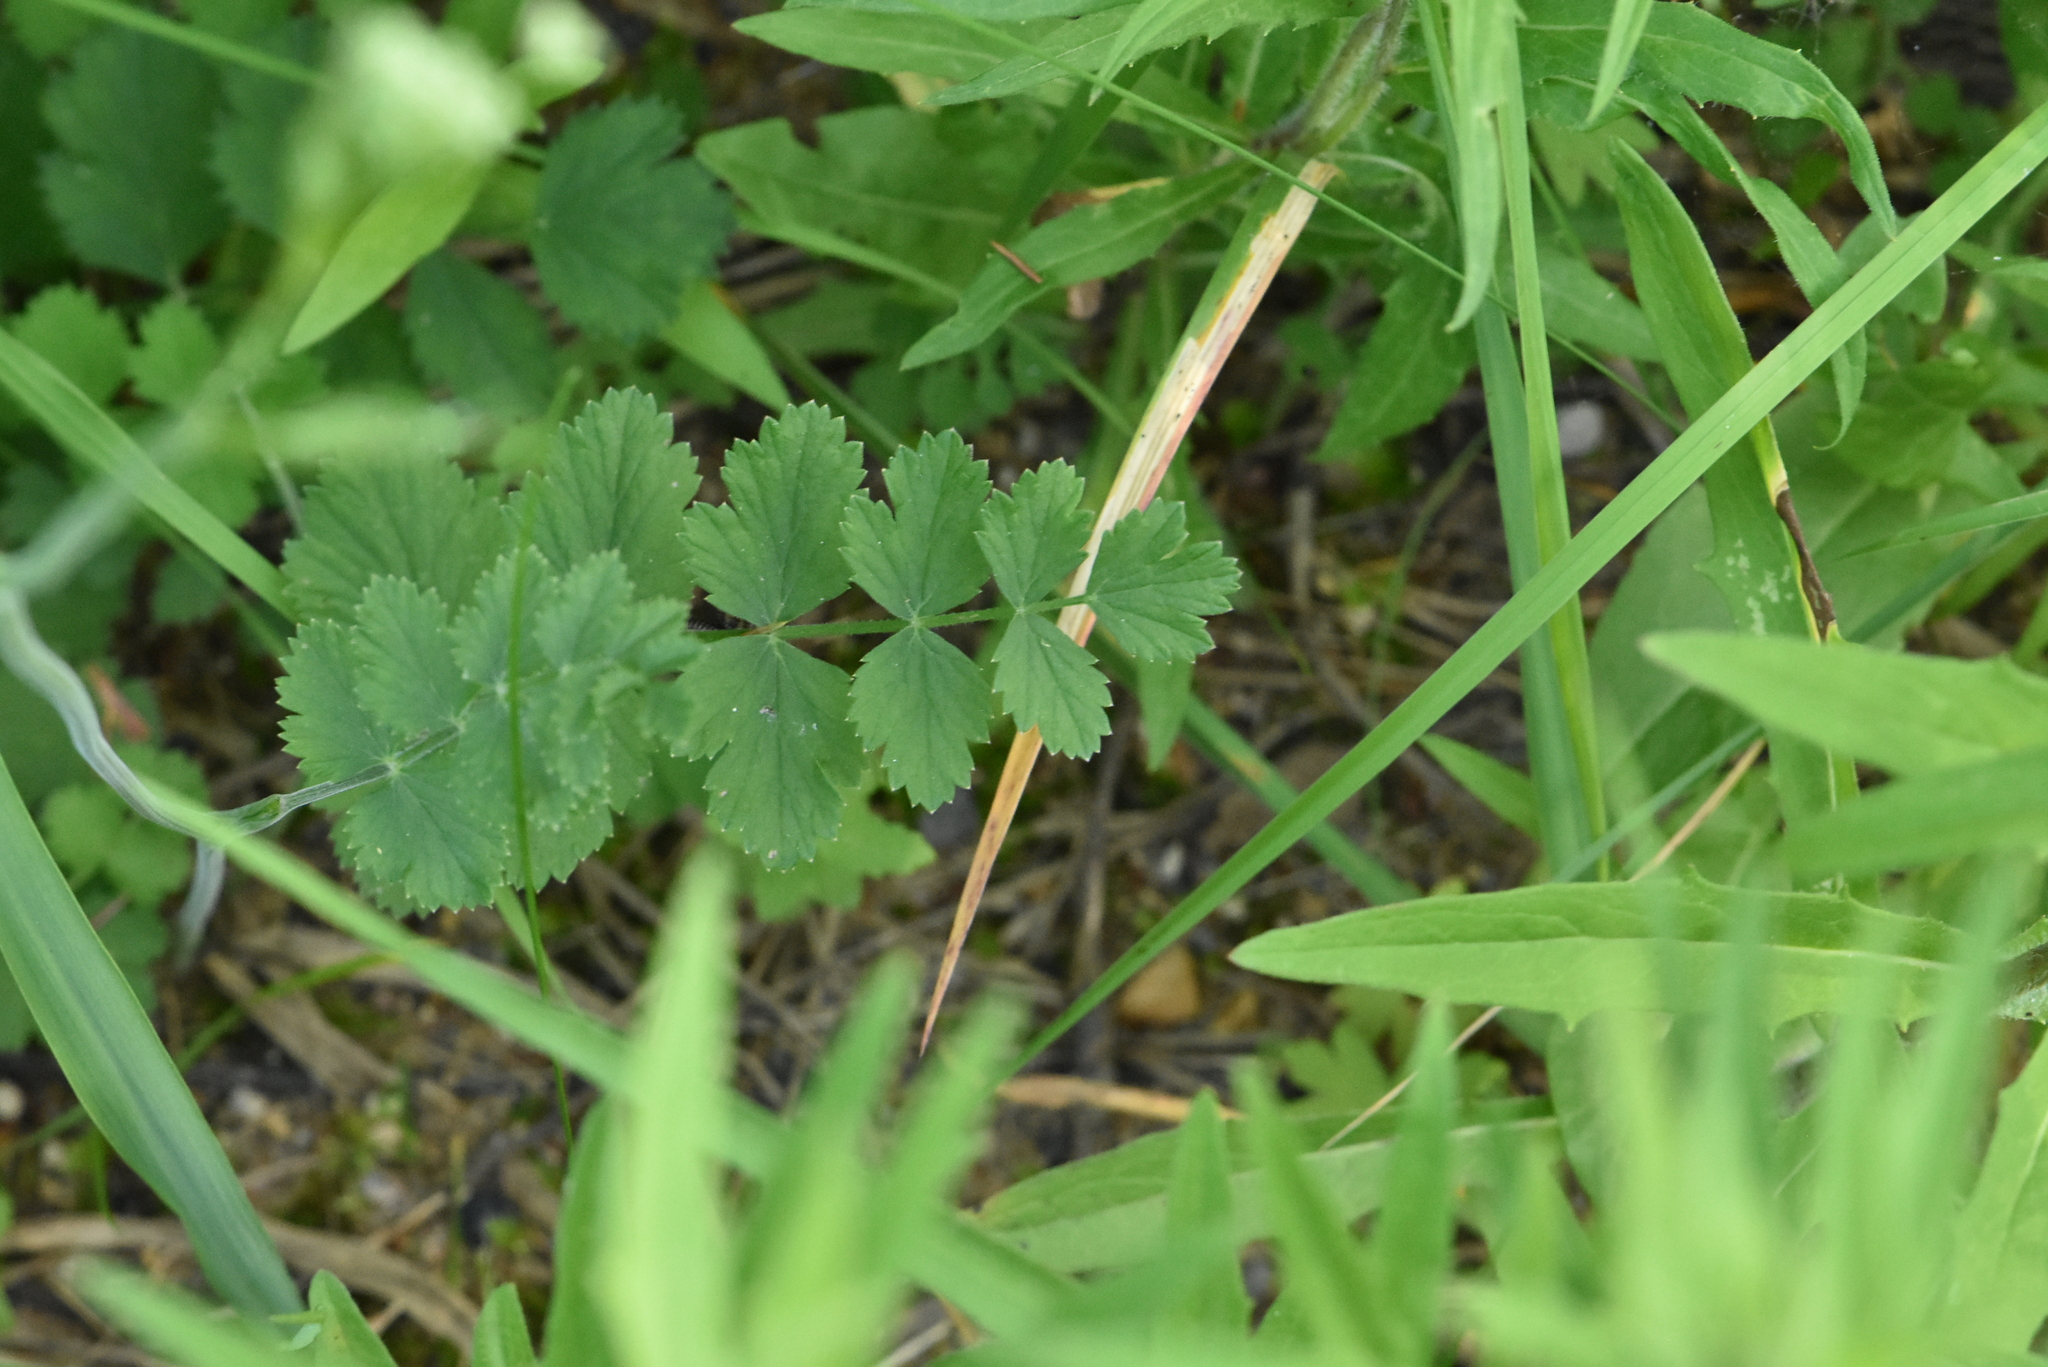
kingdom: Plantae
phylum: Tracheophyta
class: Magnoliopsida
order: Apiales
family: Apiaceae
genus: Pimpinella
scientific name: Pimpinella saxifraga
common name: Burnet-saxifrage
